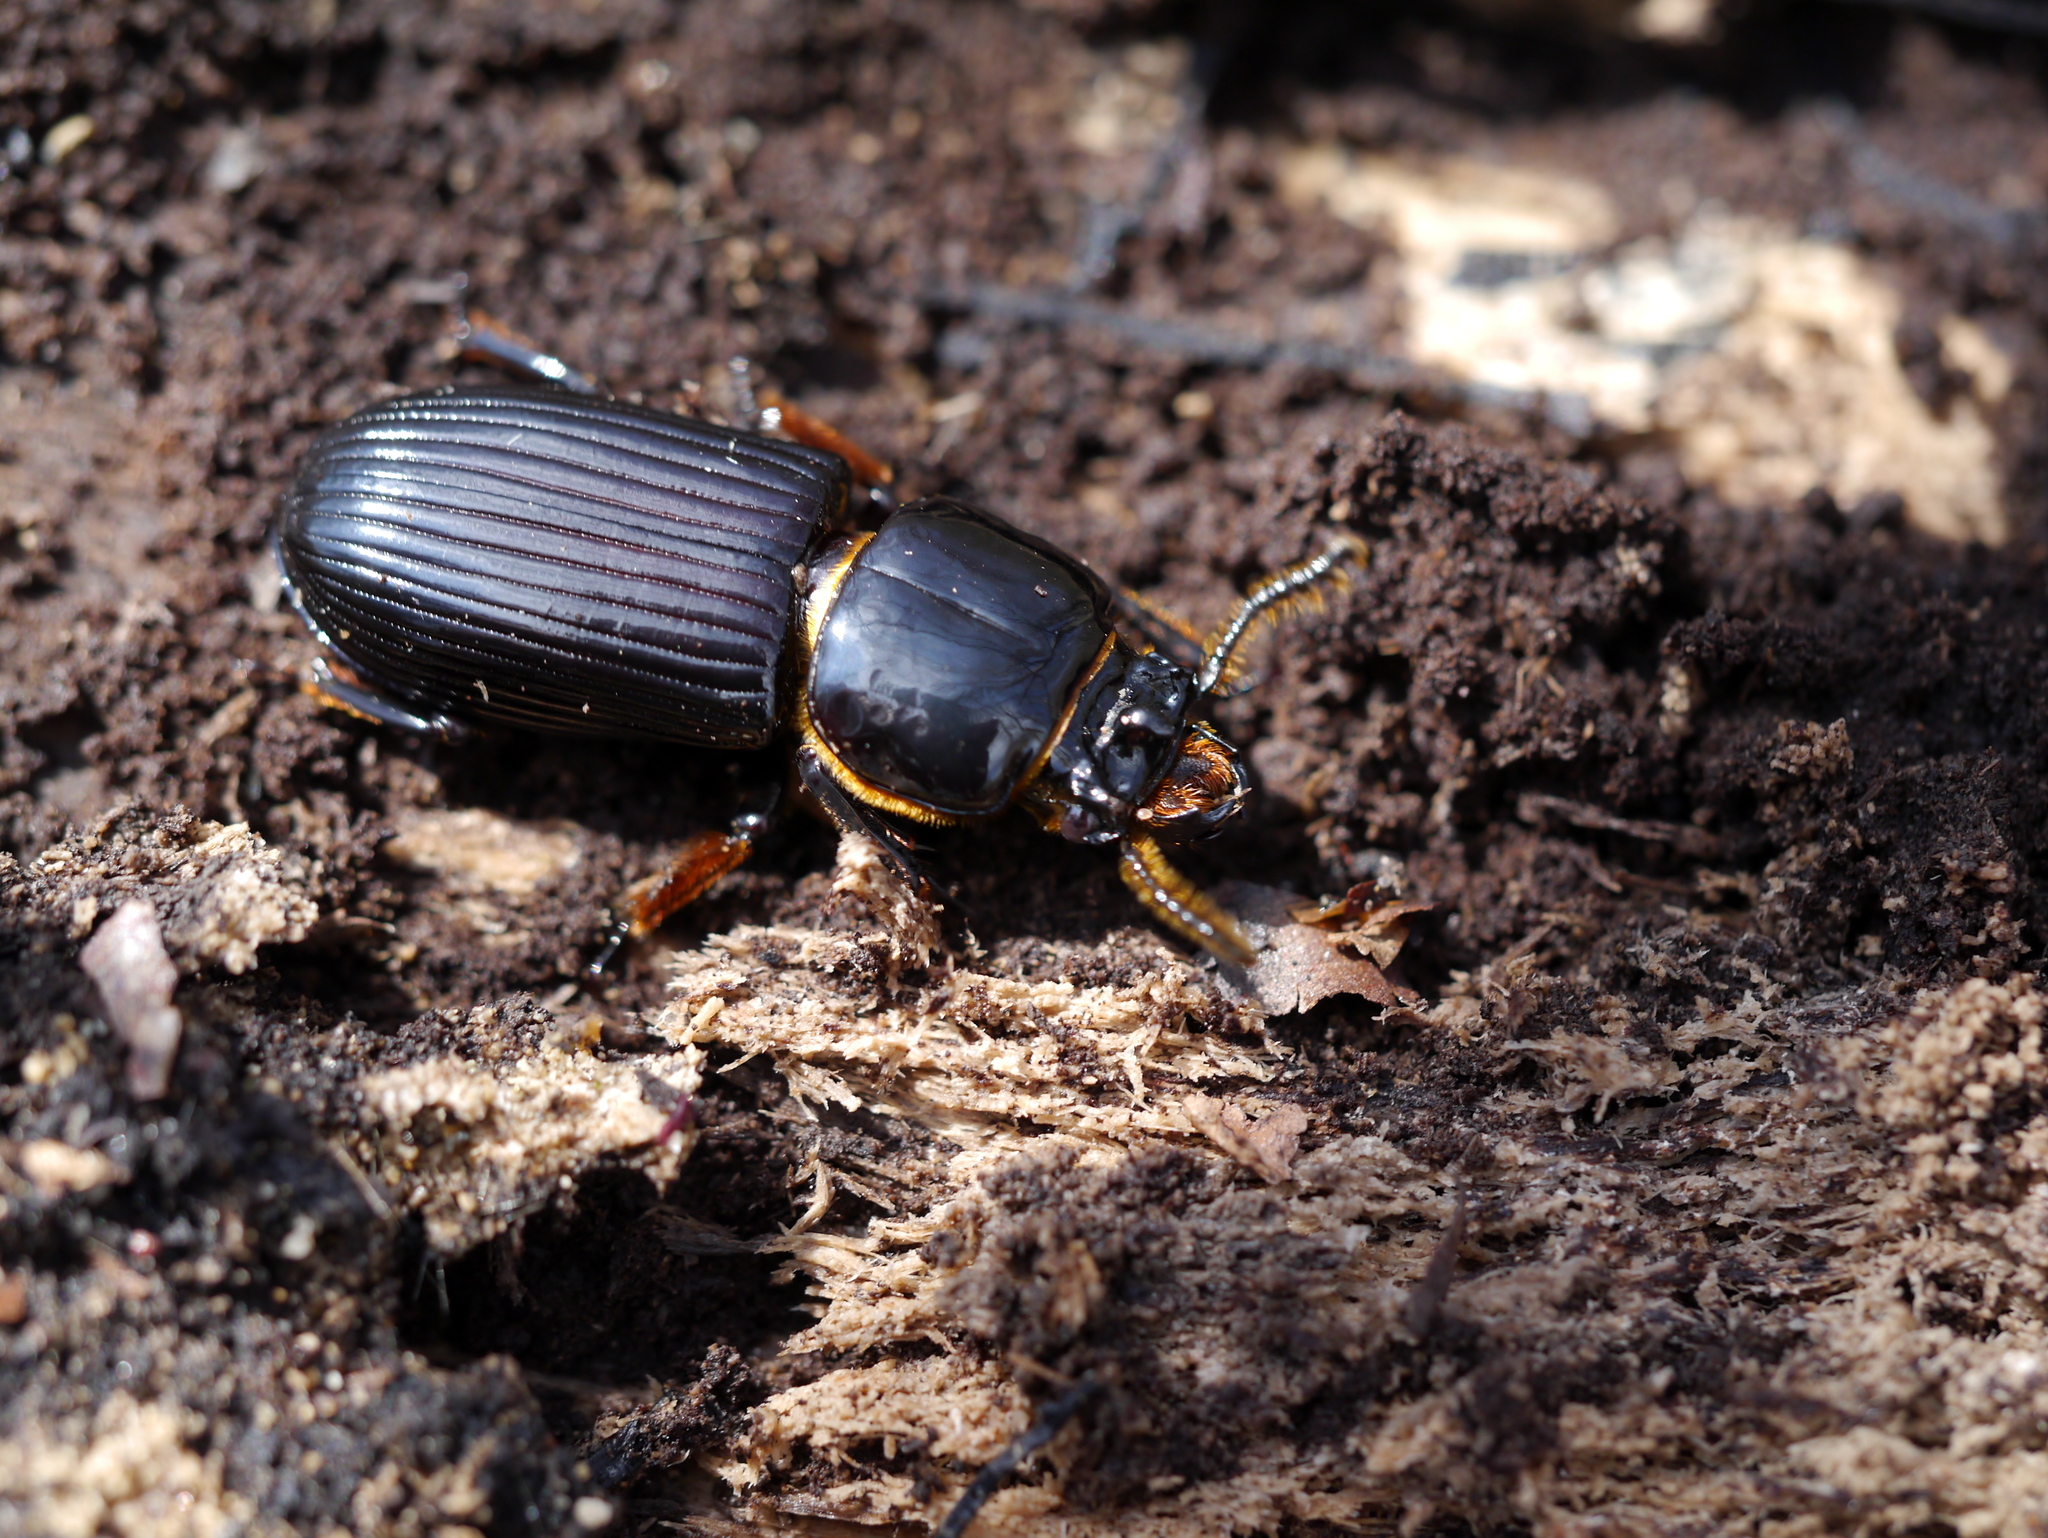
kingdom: Animalia
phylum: Arthropoda
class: Insecta
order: Coleoptera
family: Passalidae
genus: Odontotaenius
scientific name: Odontotaenius disjunctus
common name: Patent leather beetle
